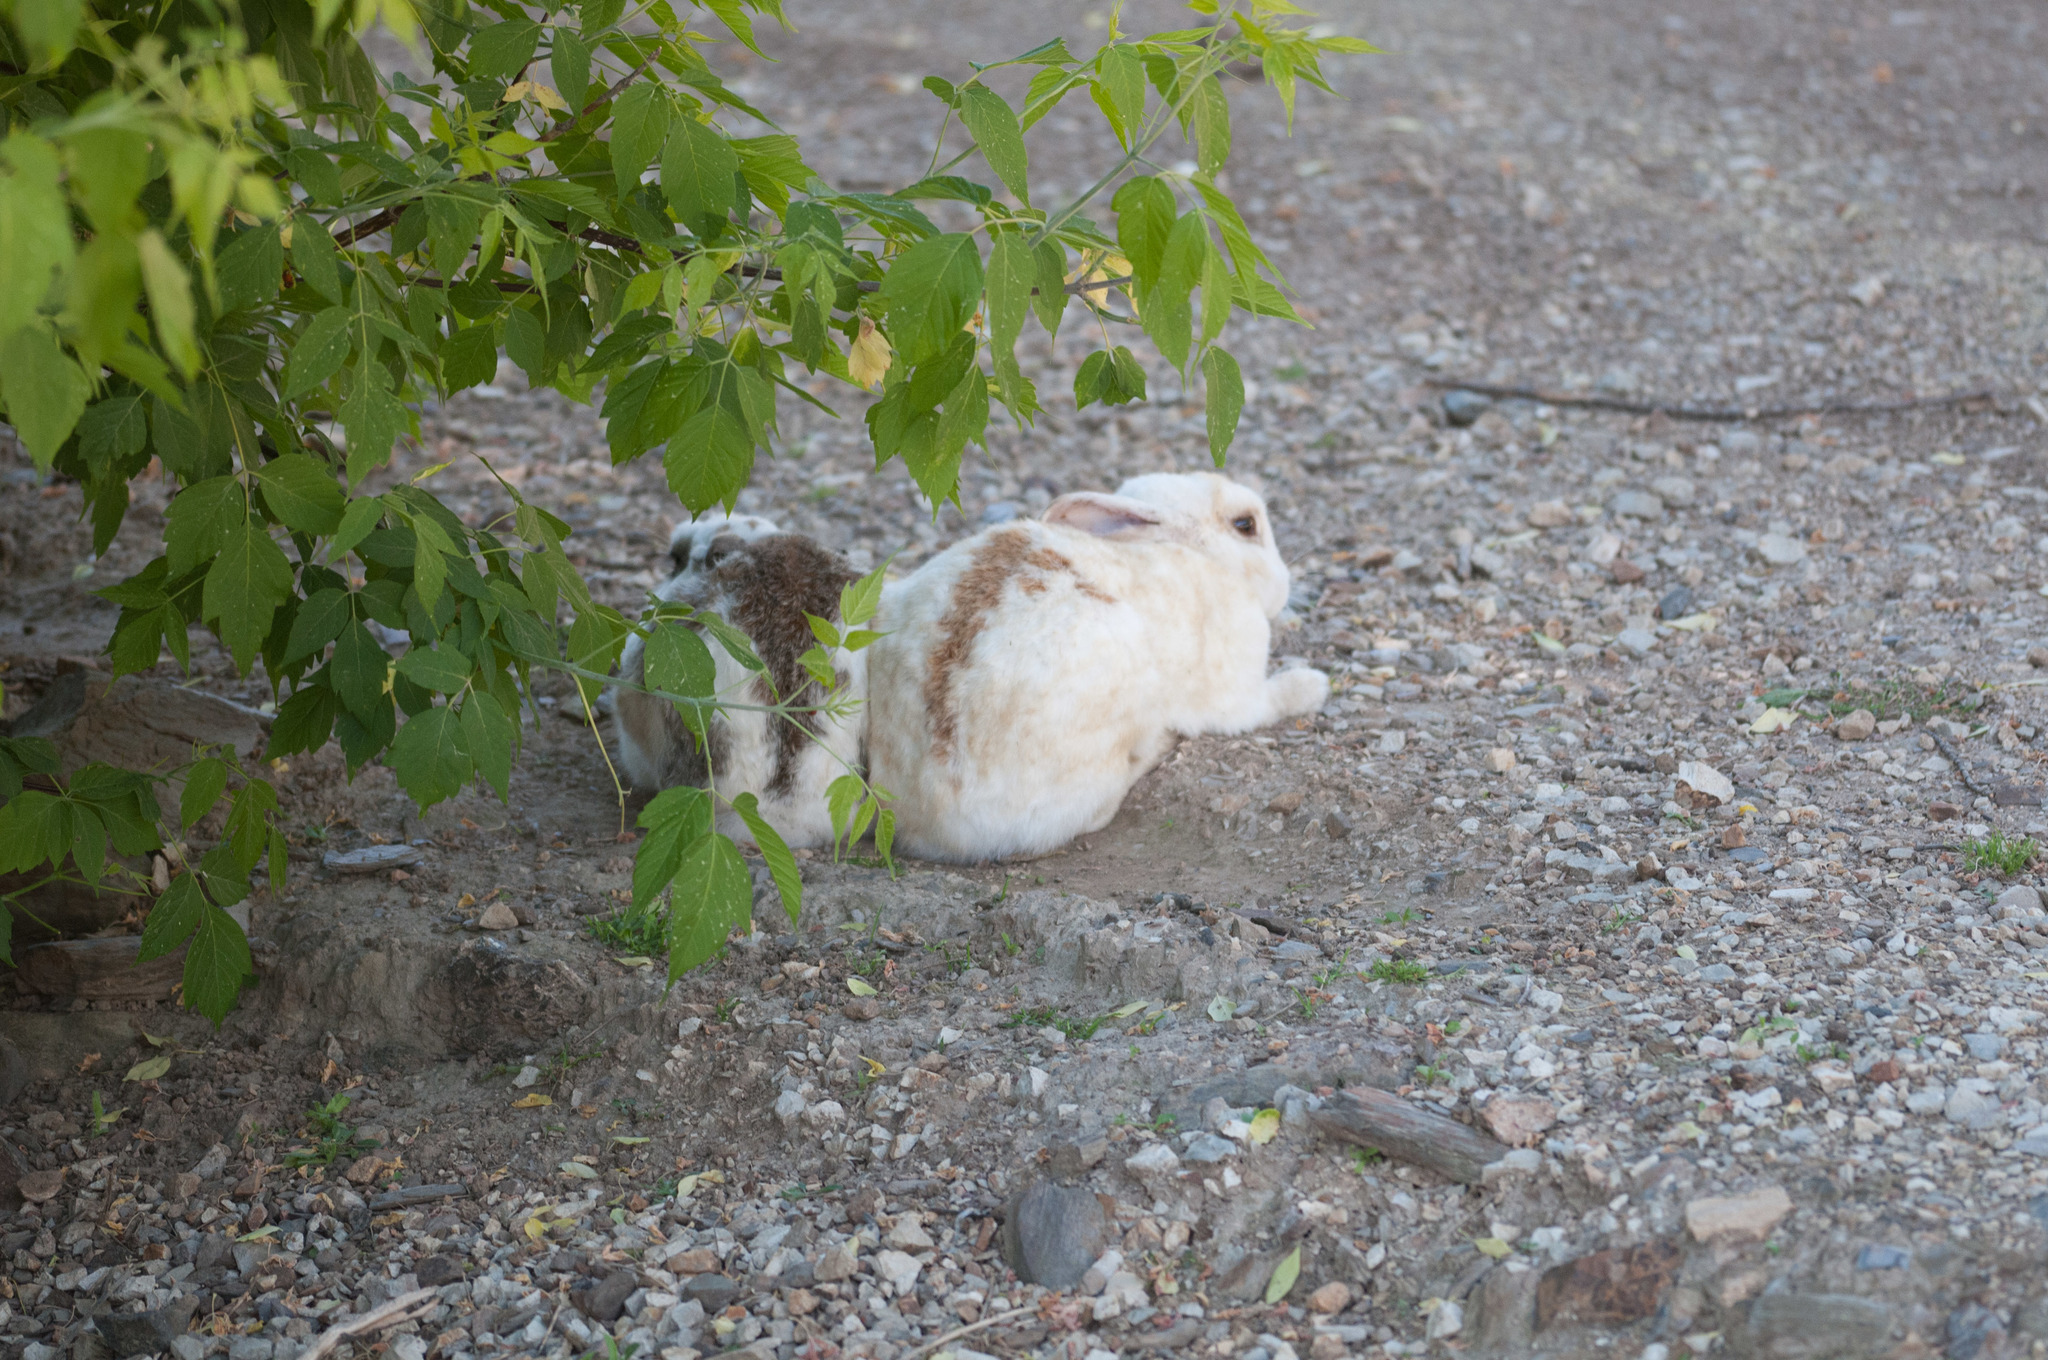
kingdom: Animalia
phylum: Chordata
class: Mammalia
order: Lagomorpha
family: Leporidae
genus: Oryctolagus
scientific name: Oryctolagus cuniculus
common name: European rabbit
